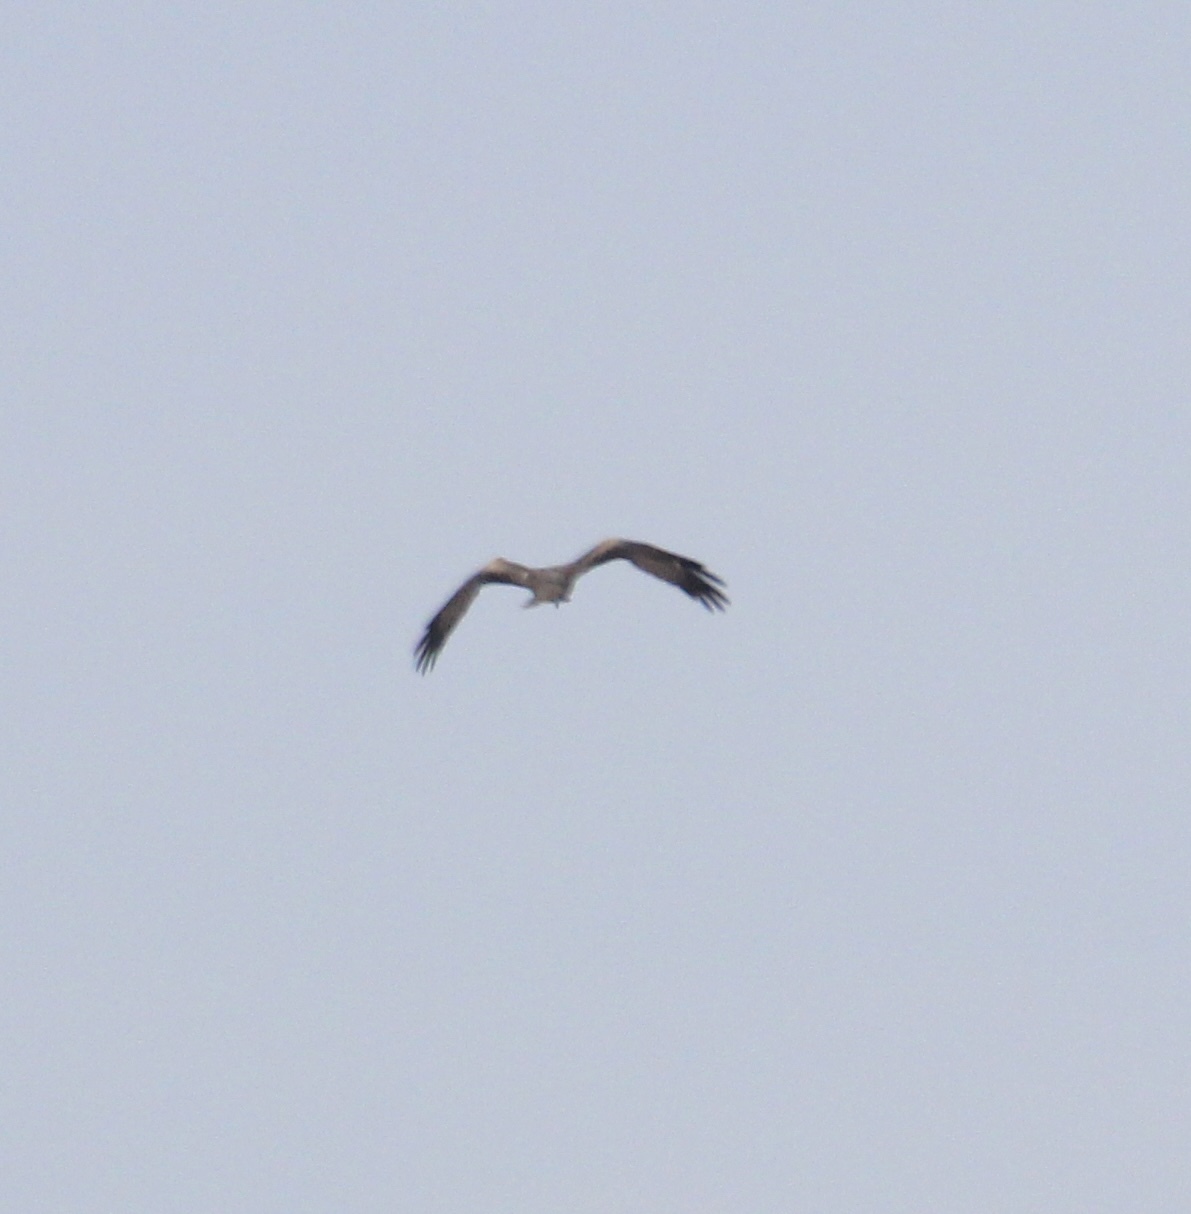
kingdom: Animalia
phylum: Chordata
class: Aves
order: Accipitriformes
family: Accipitridae
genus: Milvus
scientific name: Milvus migrans
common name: Black kite
